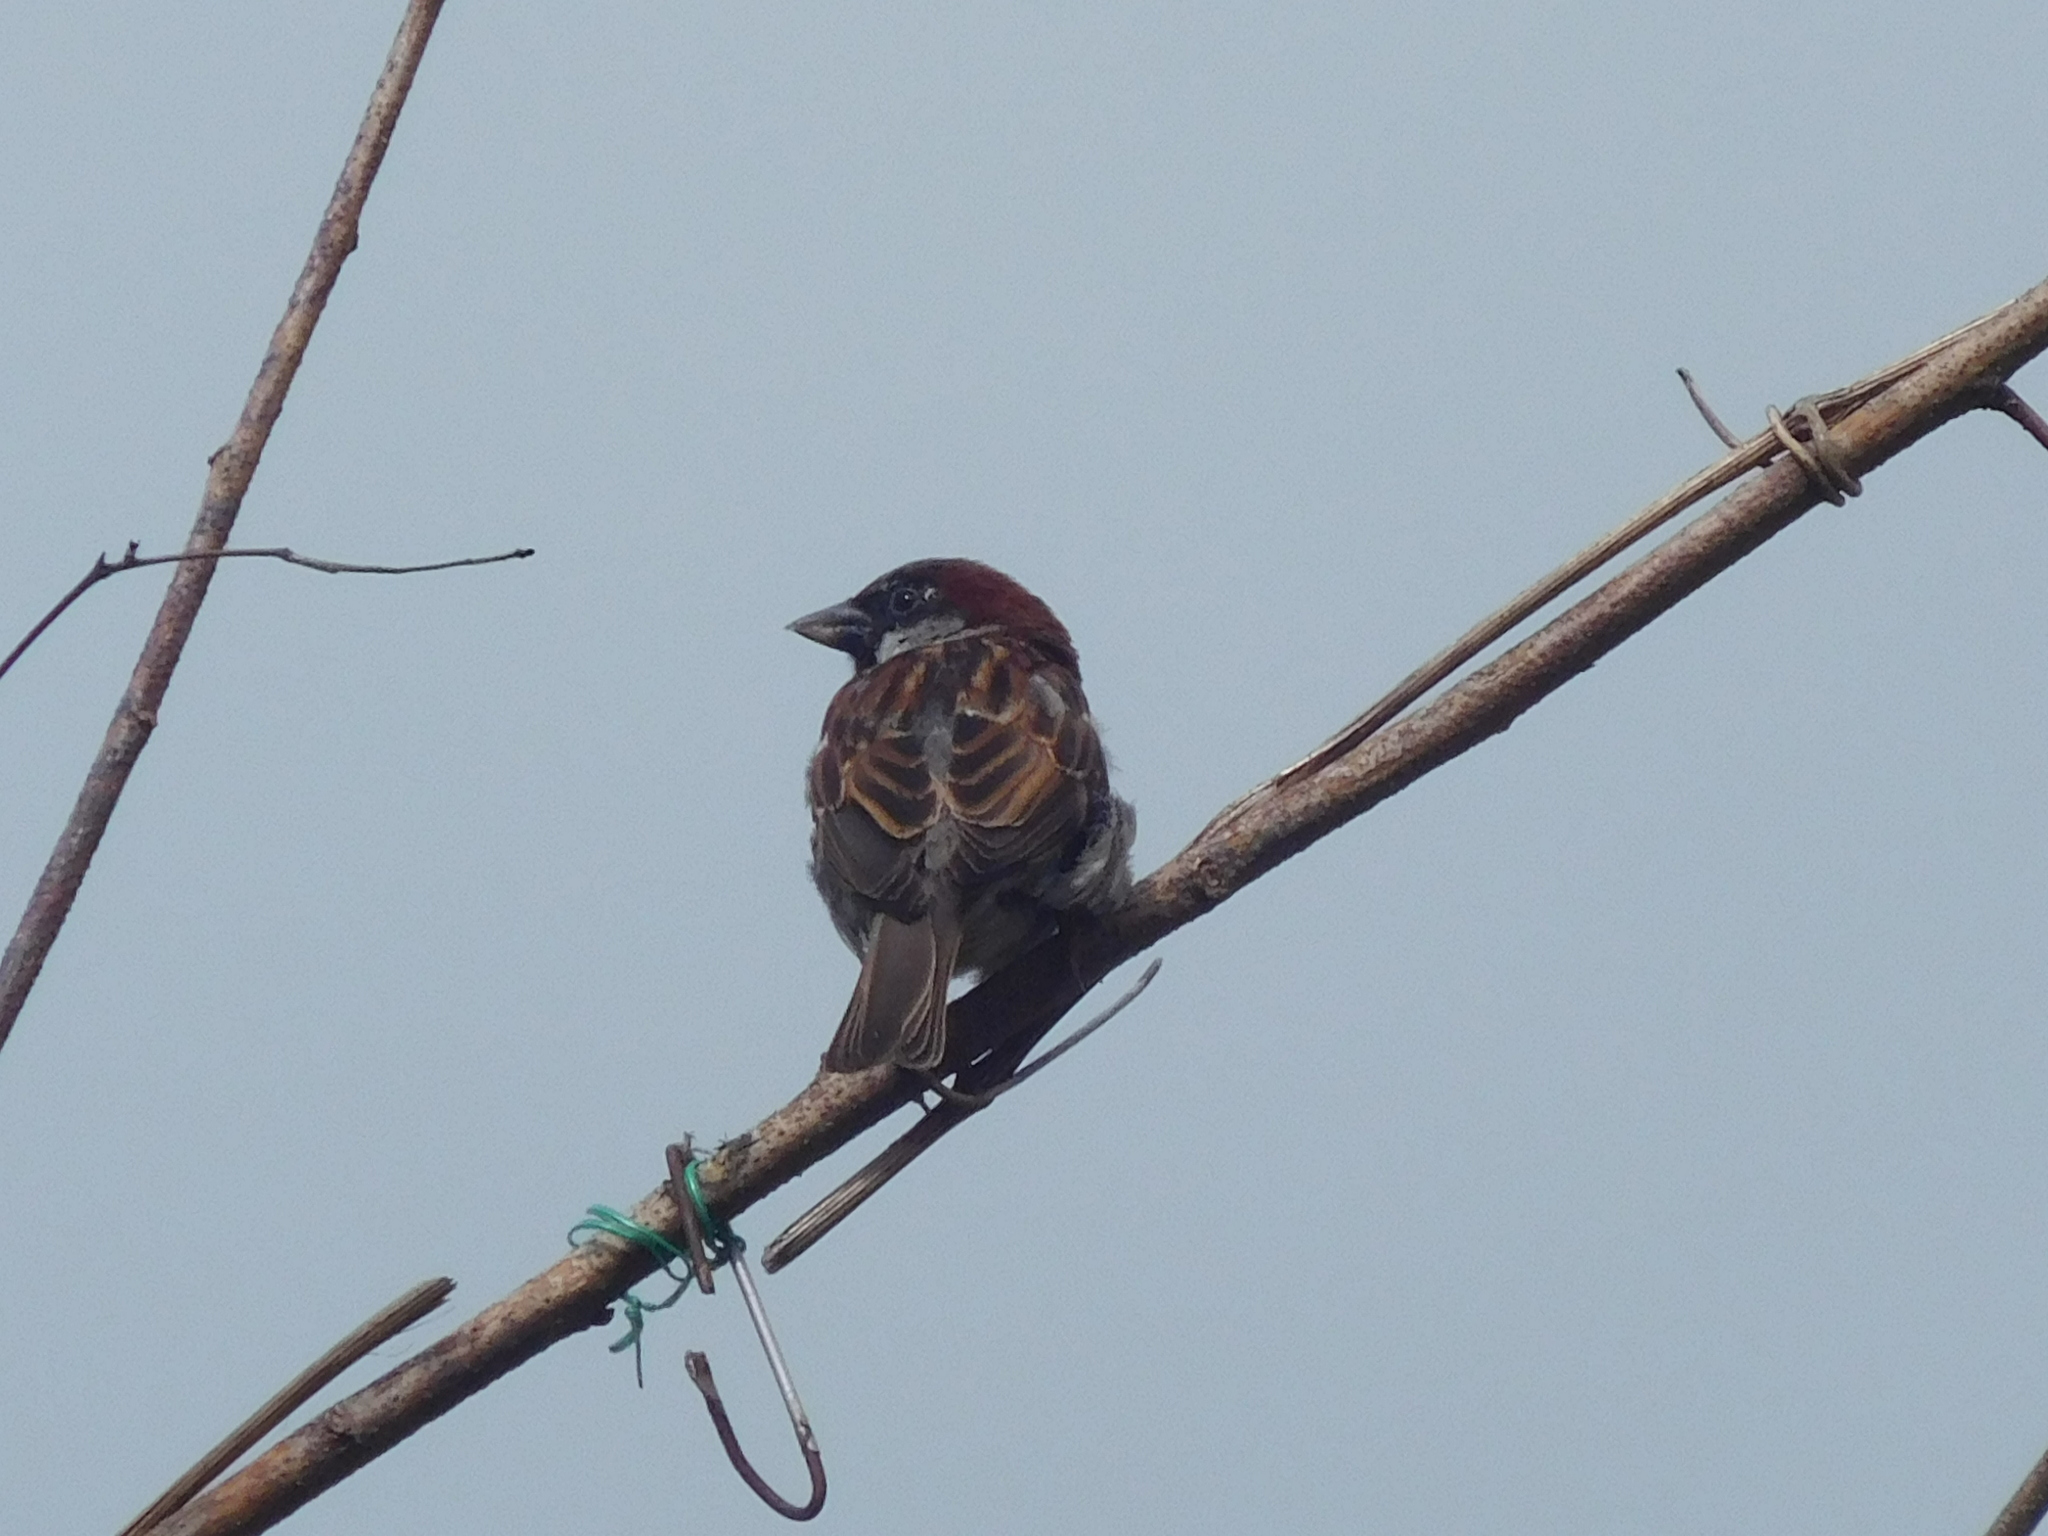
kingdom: Animalia
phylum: Chordata
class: Aves
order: Passeriformes
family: Passeridae
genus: Passer
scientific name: Passer domesticus
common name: House sparrow
